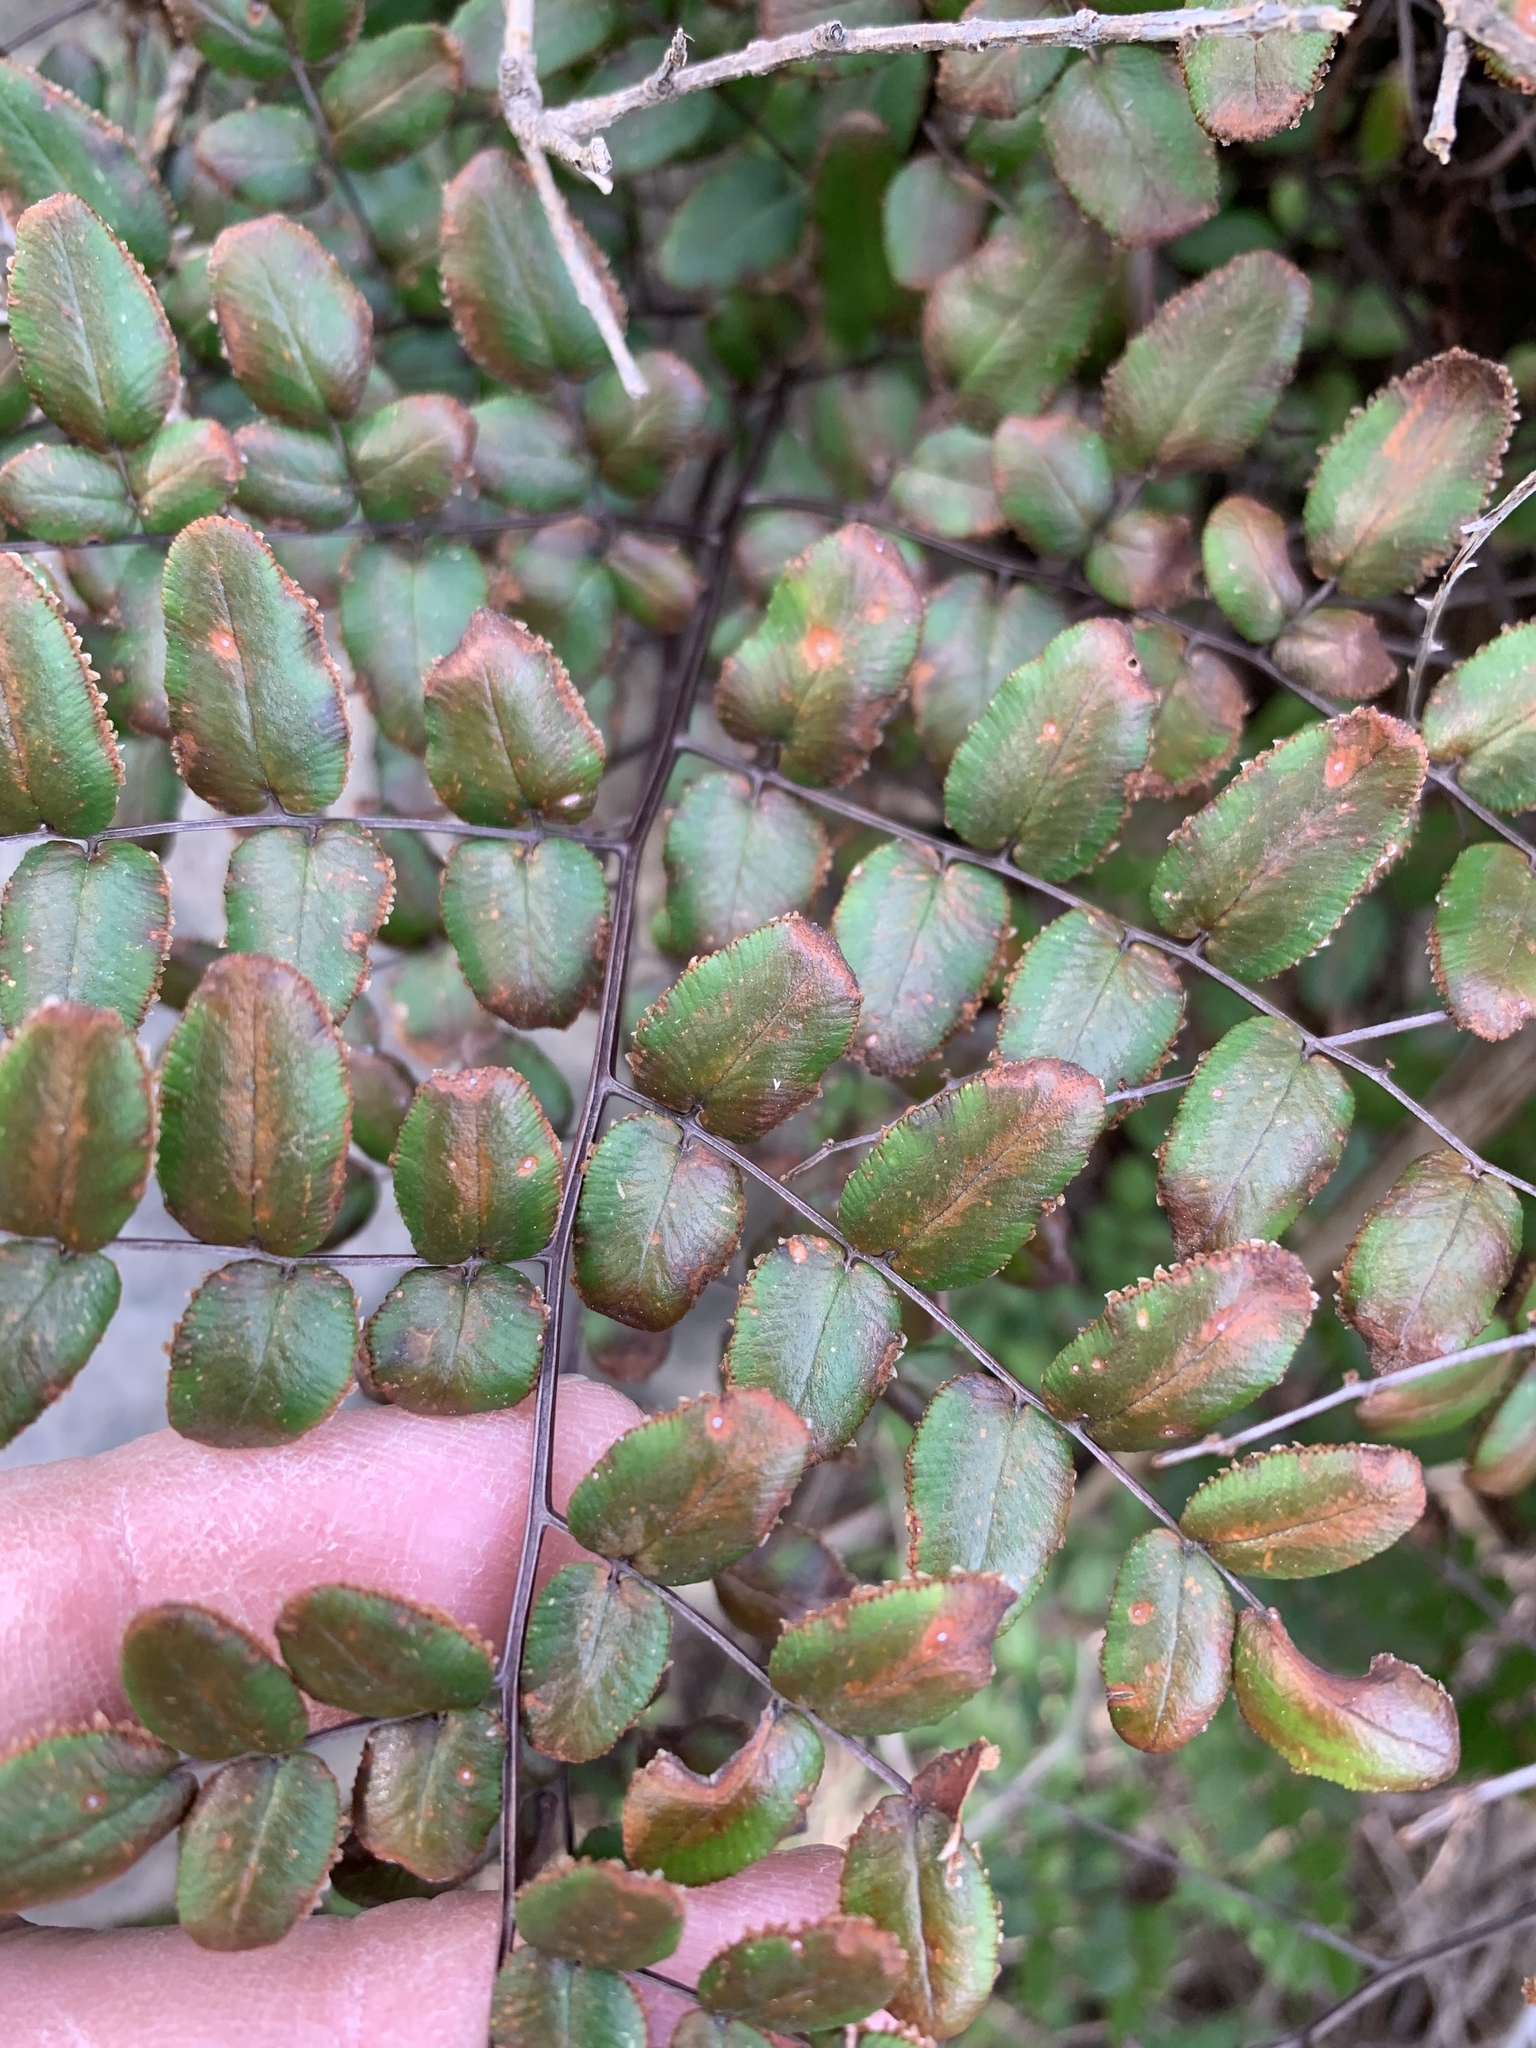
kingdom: Plantae
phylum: Tracheophyta
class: Polypodiopsida
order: Polypodiales
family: Pteridaceae
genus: Pellaea
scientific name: Pellaea pteroides
